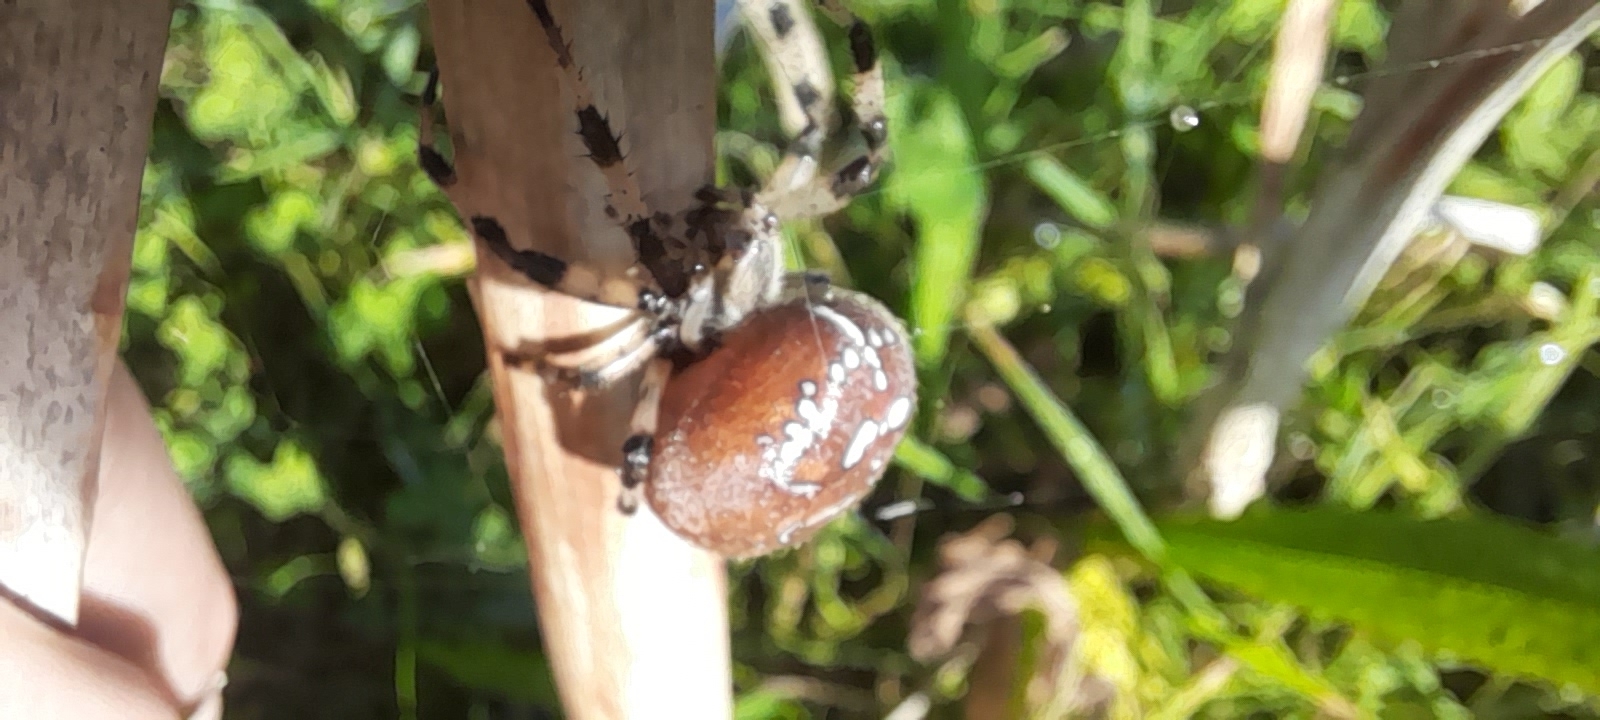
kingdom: Animalia
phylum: Arthropoda
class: Arachnida
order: Araneae
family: Araneidae
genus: Araneus
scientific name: Araneus quadratus
